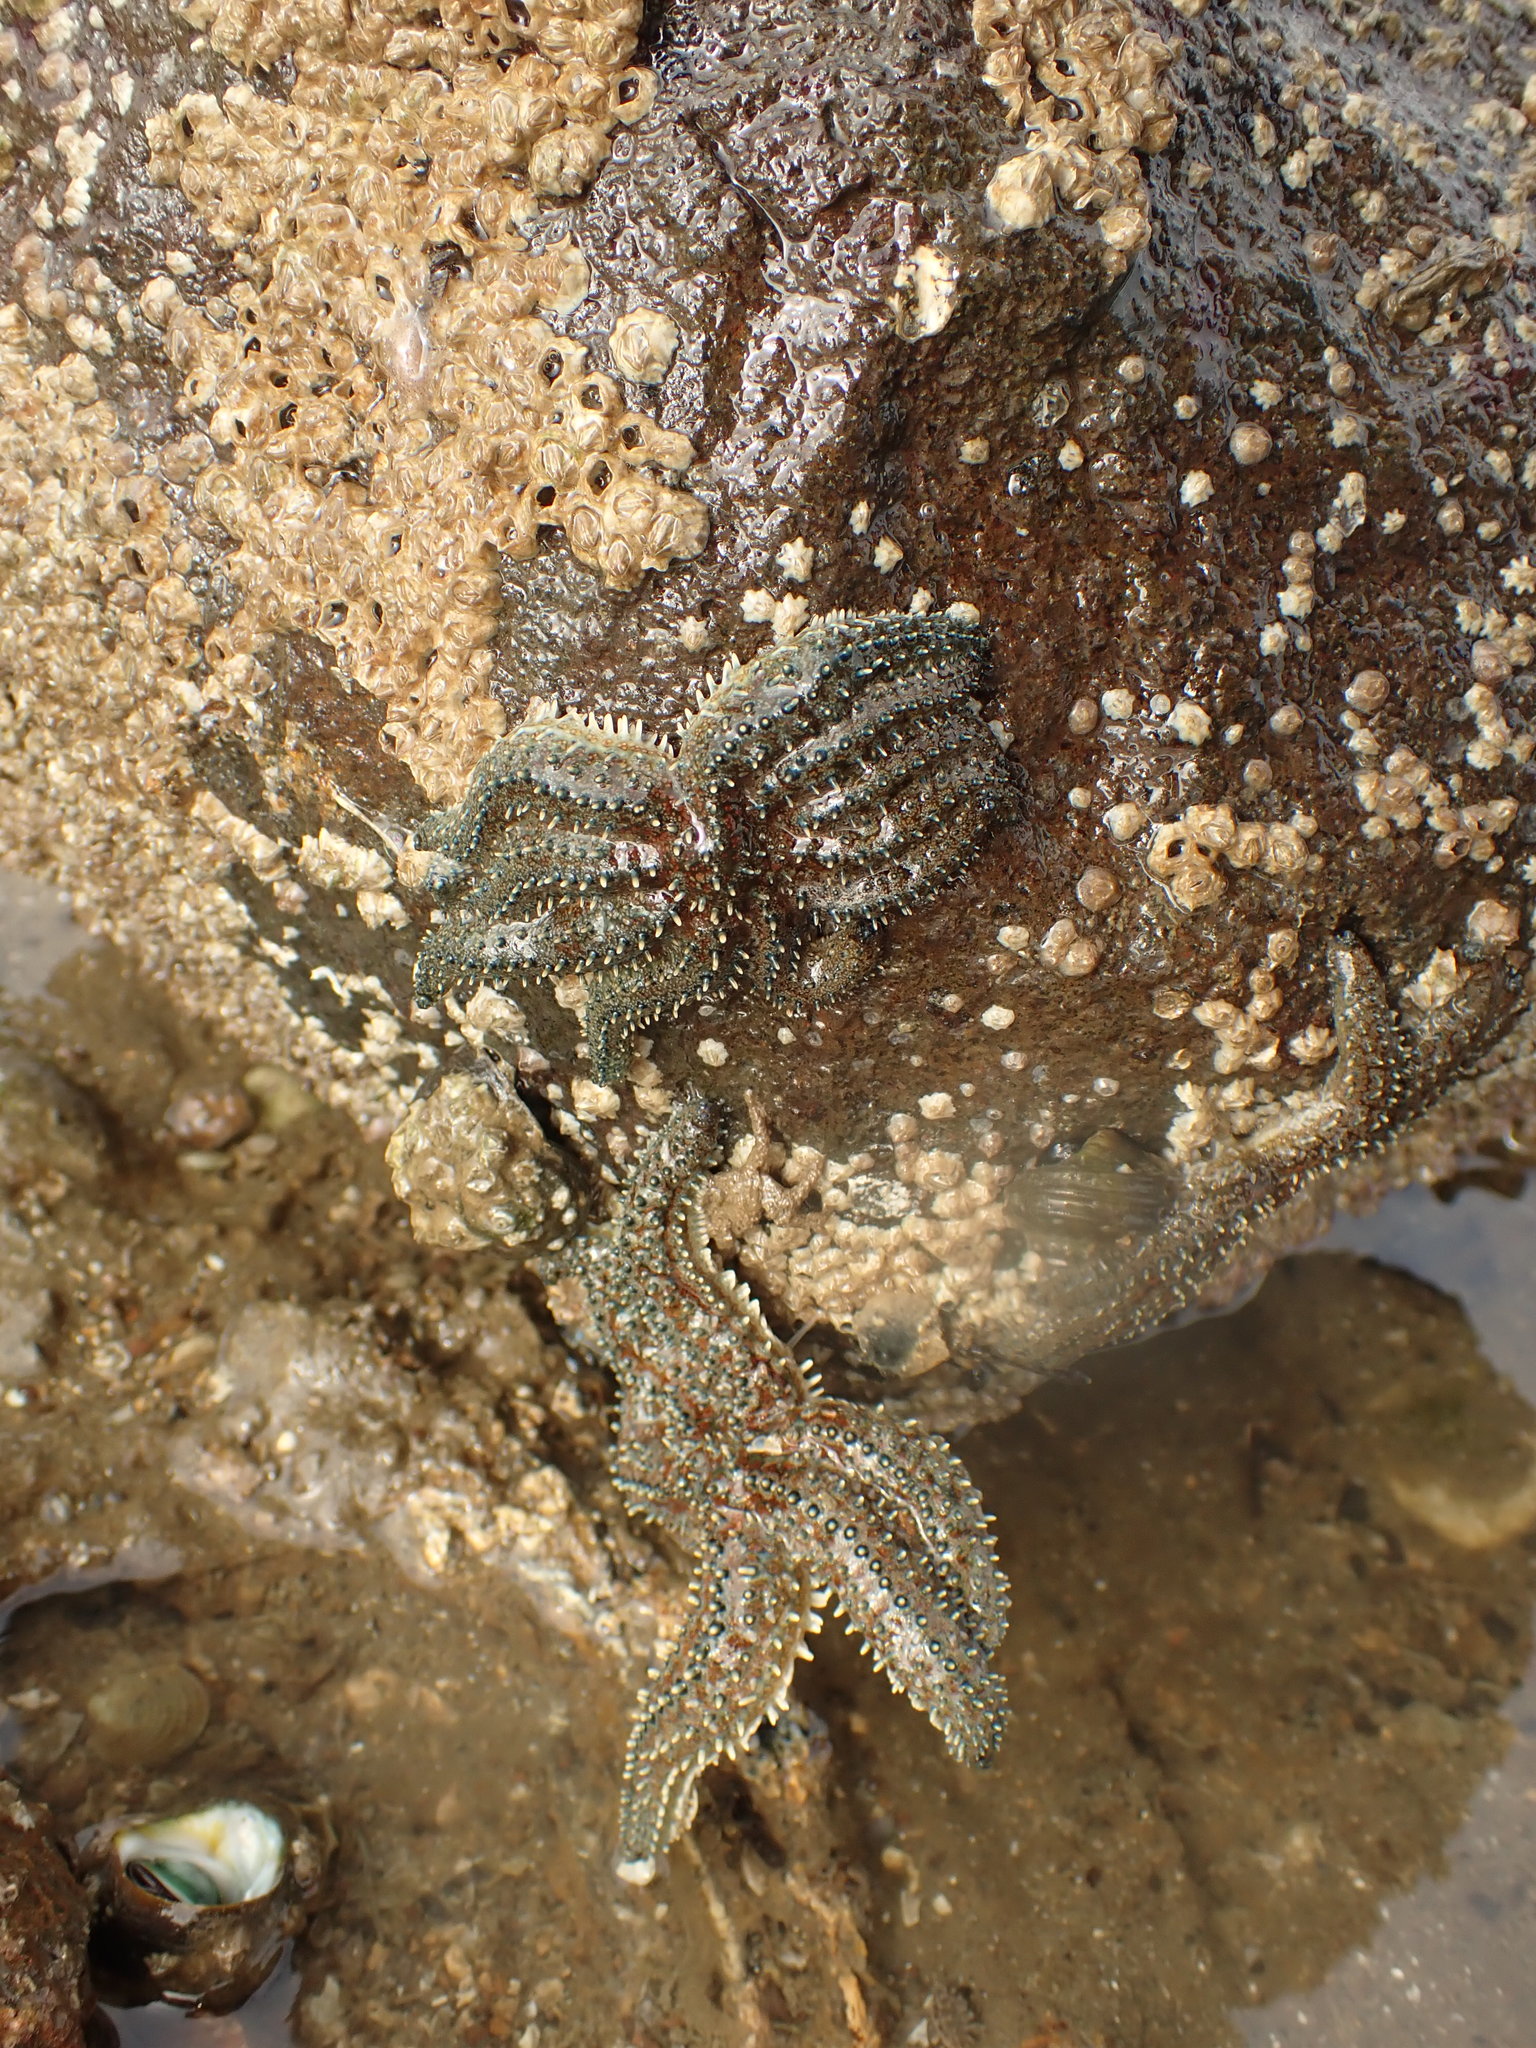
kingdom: Animalia
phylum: Echinodermata
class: Asteroidea
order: Forcipulatida
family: Asteriidae
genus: Coscinasterias
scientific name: Coscinasterias muricata
